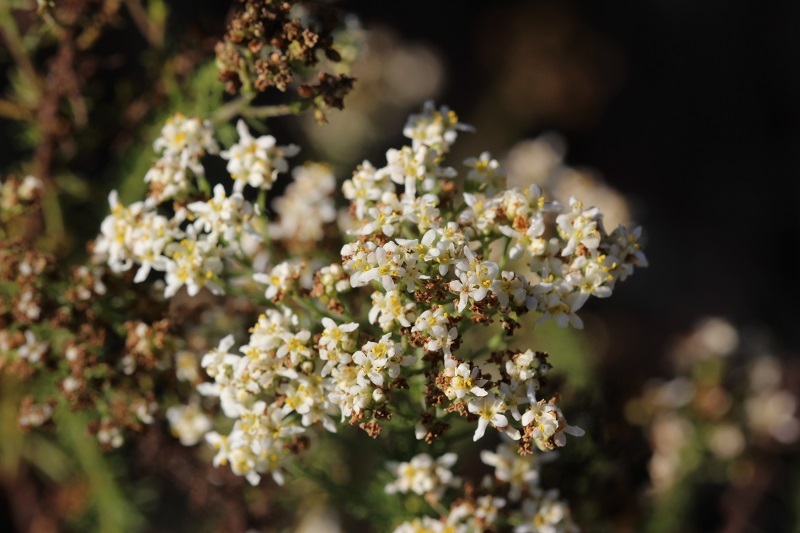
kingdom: Plantae
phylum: Tracheophyta
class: Magnoliopsida
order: Lamiales
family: Scrophulariaceae
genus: Selago
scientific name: Selago corymbosa
